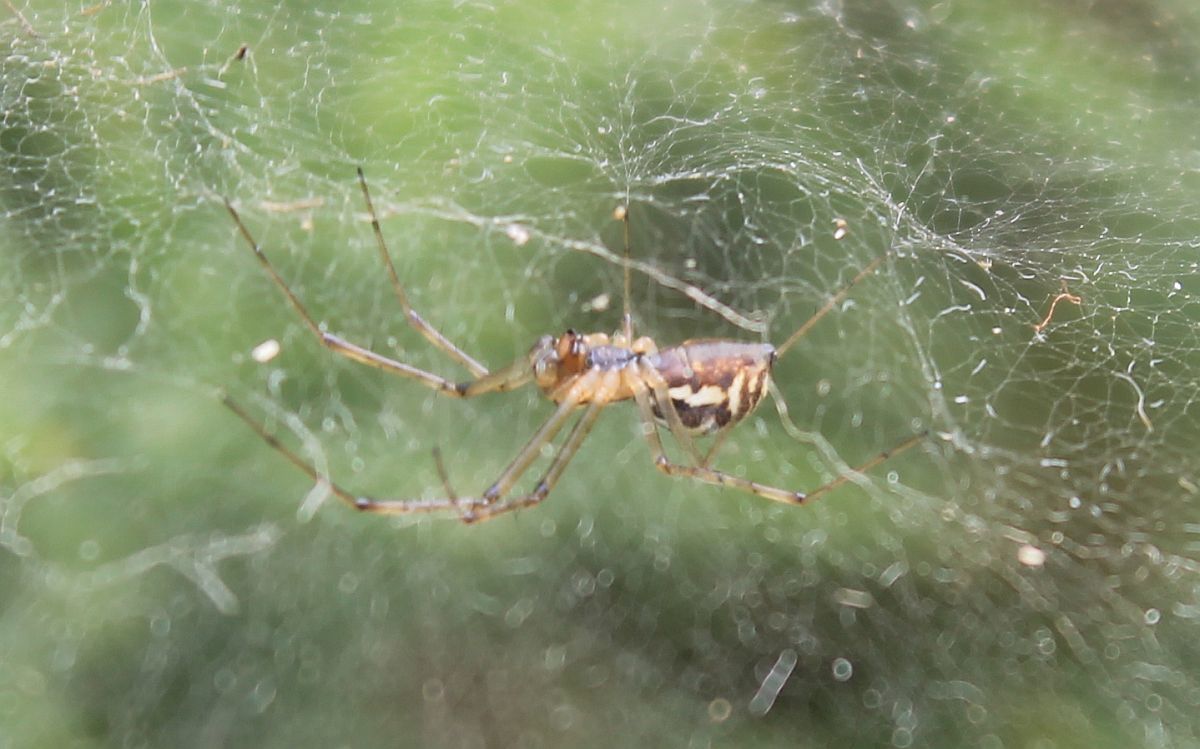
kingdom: Animalia
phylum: Arthropoda
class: Arachnida
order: Araneae
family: Linyphiidae
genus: Linyphia
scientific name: Linyphia triangularis
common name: Money spider
